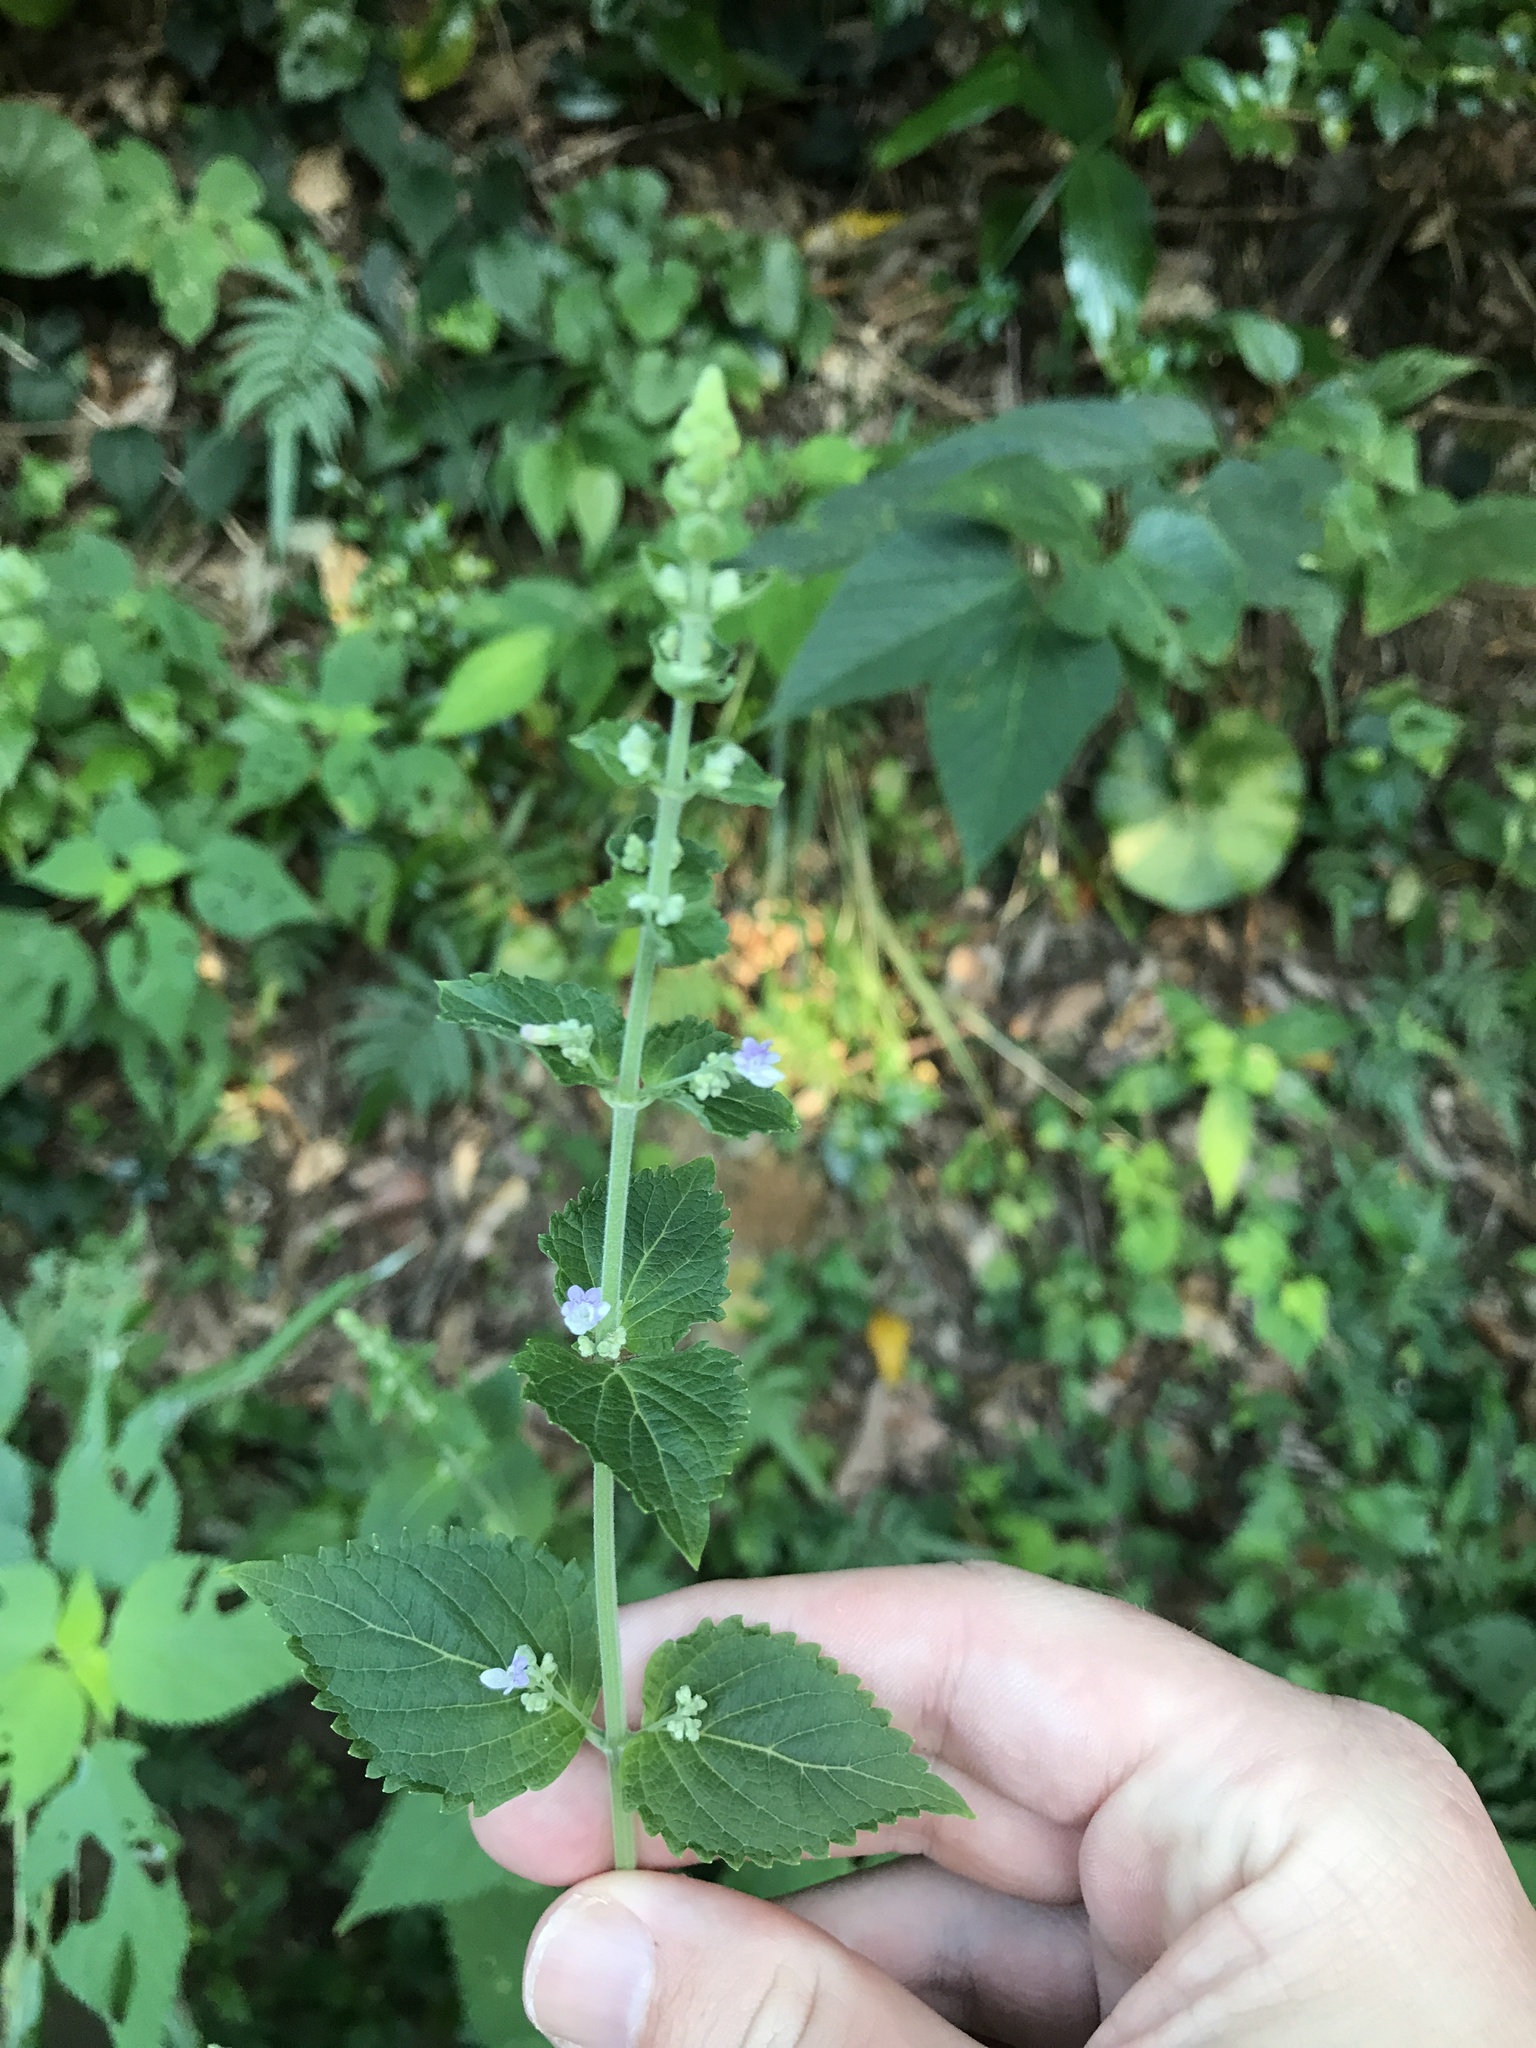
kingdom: Plantae
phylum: Tracheophyta
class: Magnoliopsida
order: Lamiales
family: Lamiaceae
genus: Isodon
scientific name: Isodon japonicus
